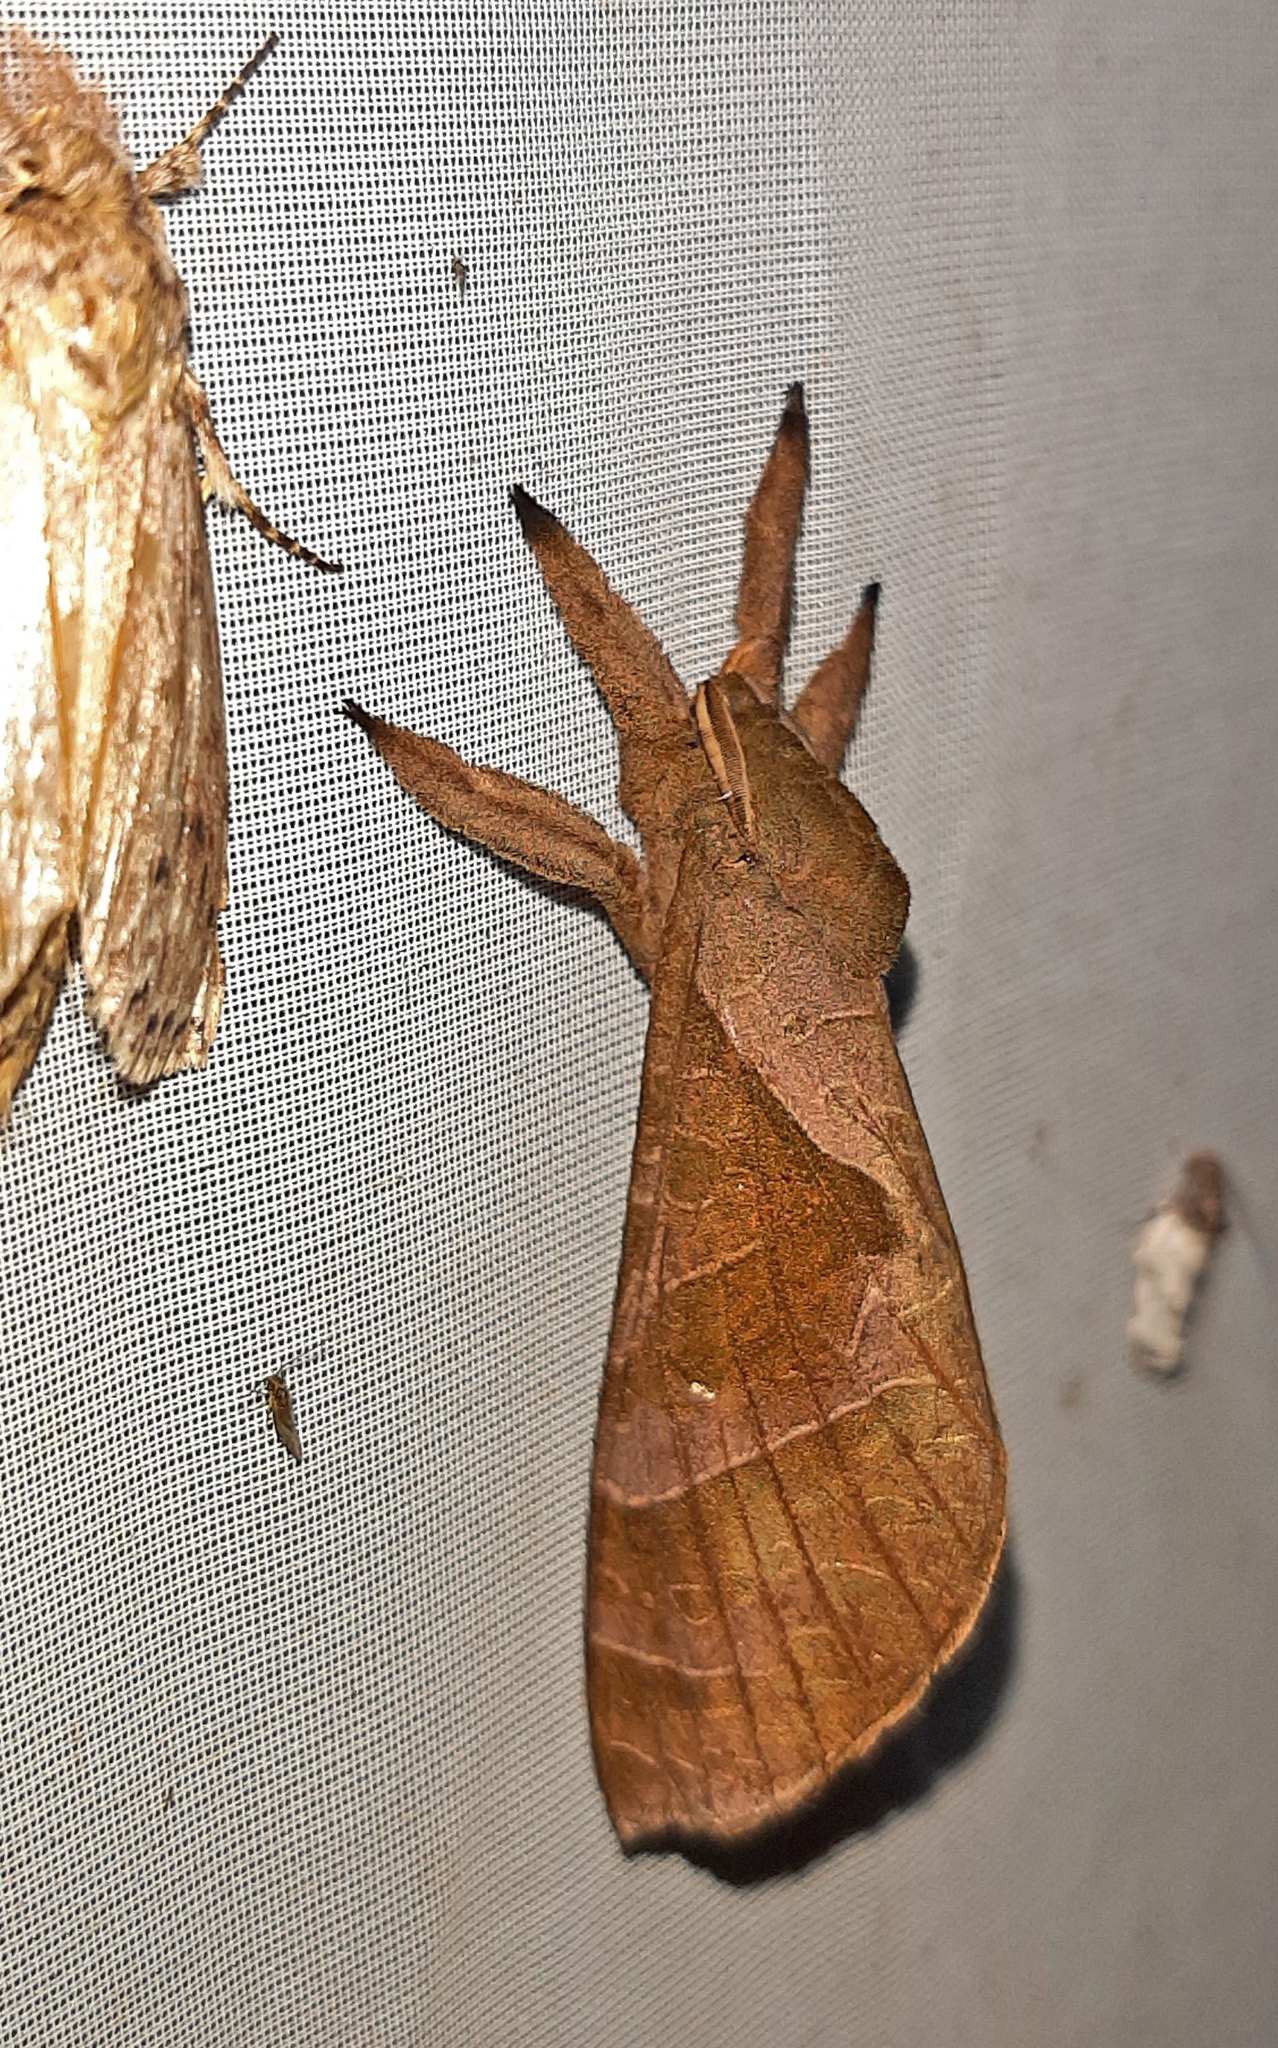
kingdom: Animalia
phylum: Arthropoda
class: Insecta
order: Lepidoptera
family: Hepialidae
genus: Druceiella
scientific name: Druceiella
